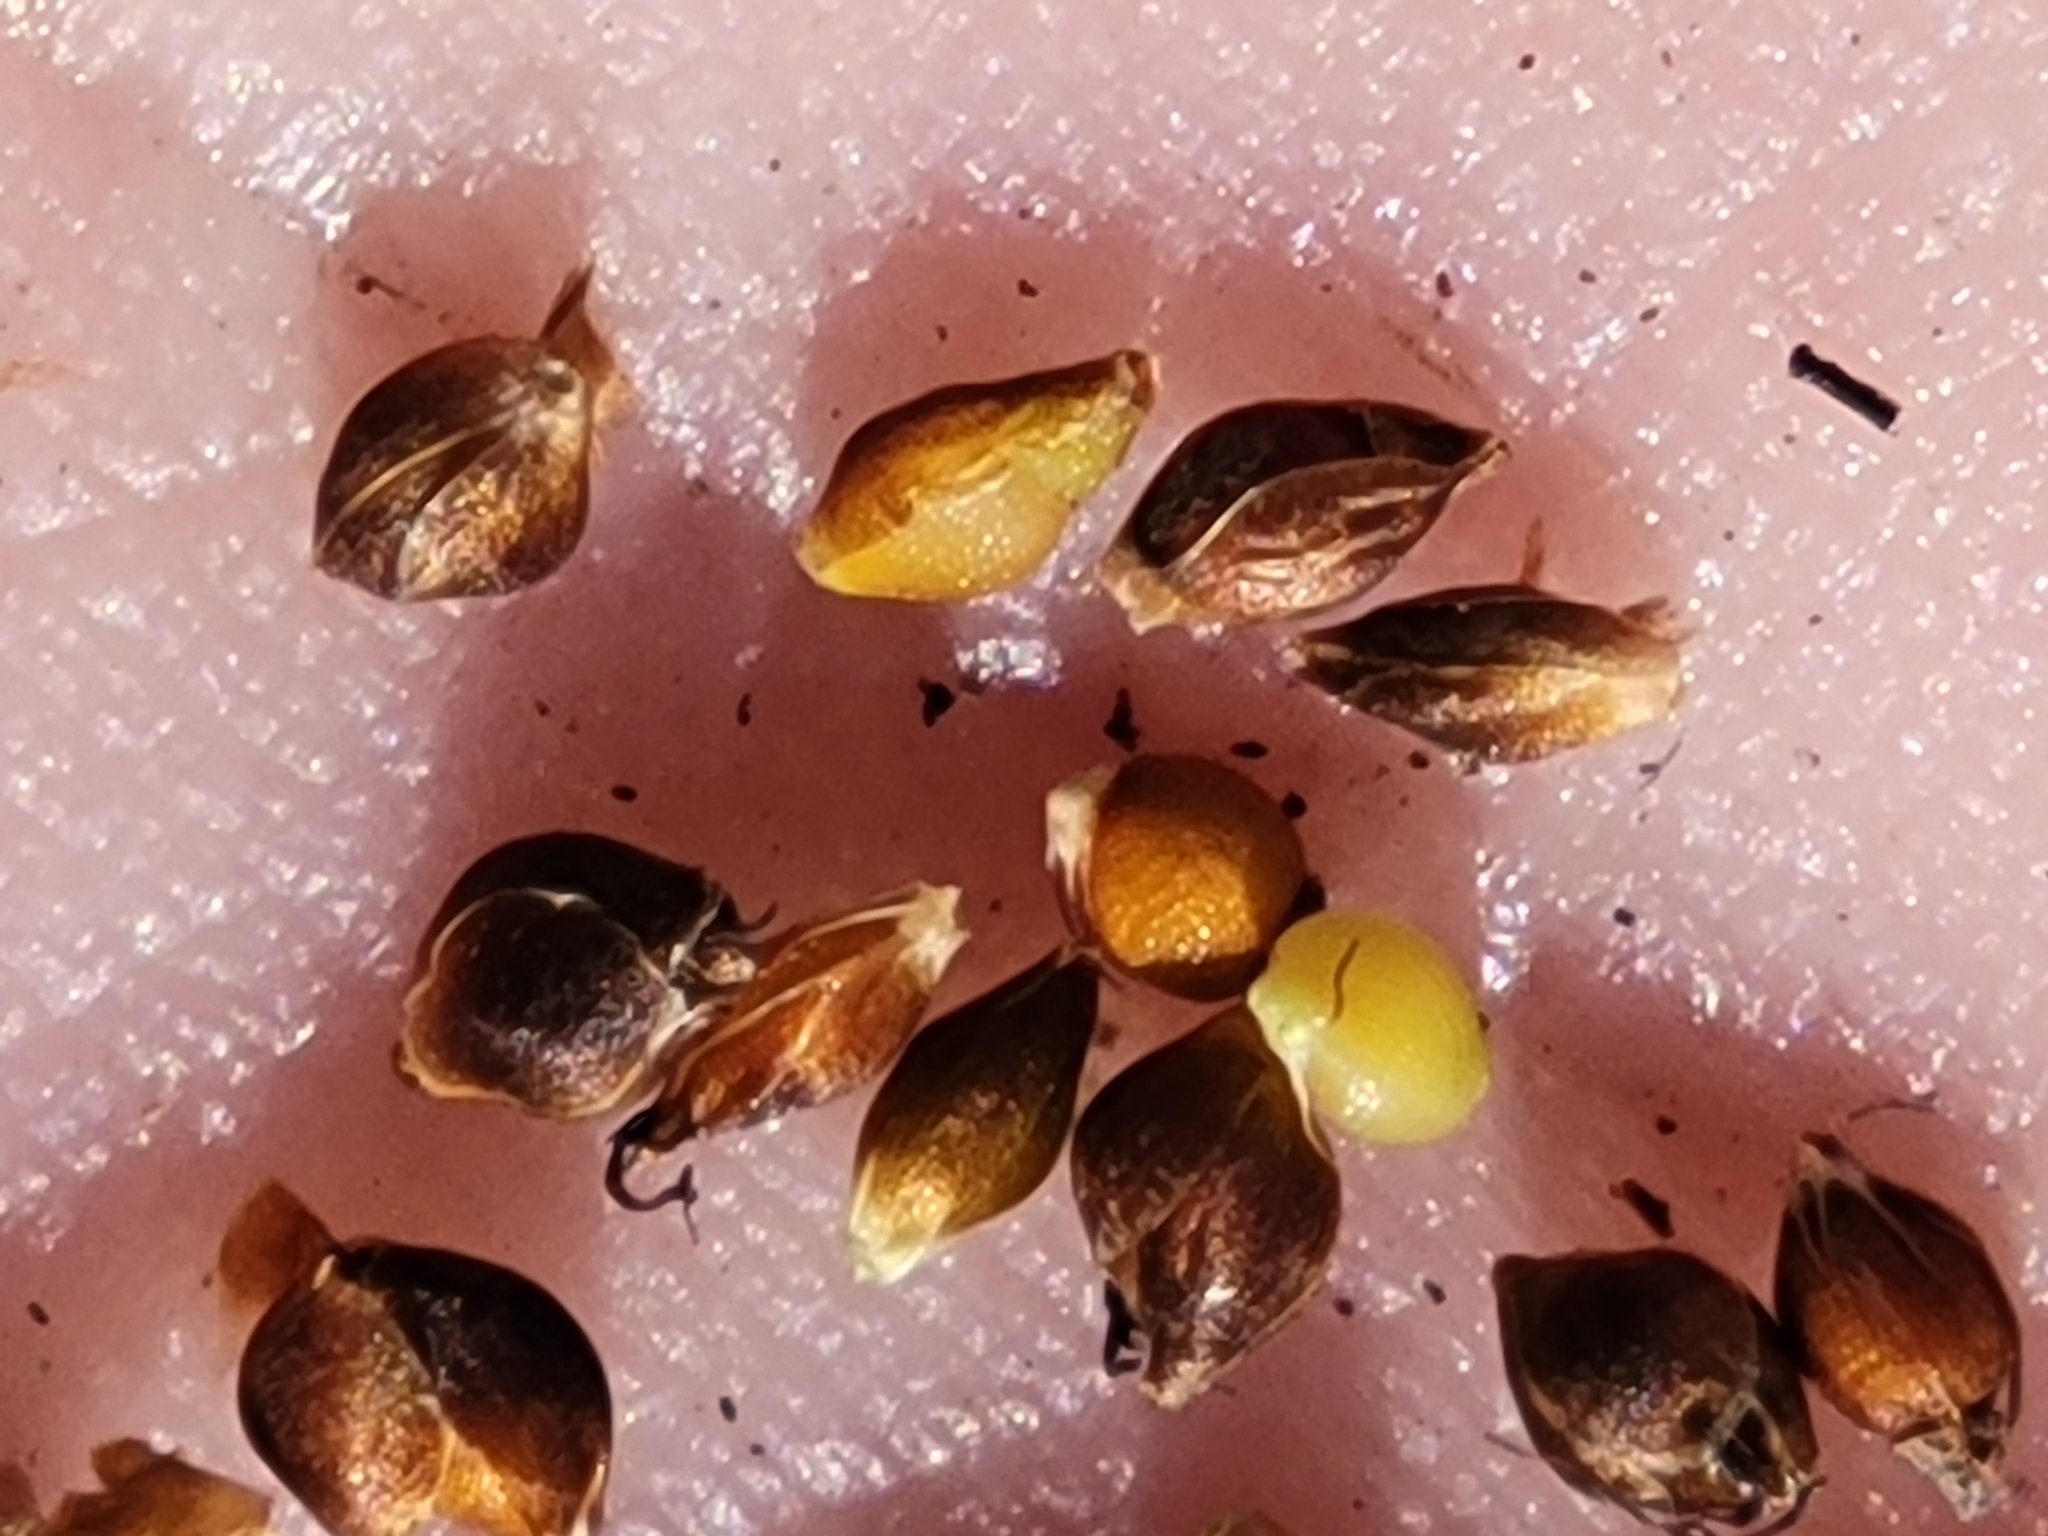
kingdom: Plantae
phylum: Tracheophyta
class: Liliopsida
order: Poales
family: Cyperaceae
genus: Rhynchospora
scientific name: Rhynchospora globularis
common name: Globe beaksedge
